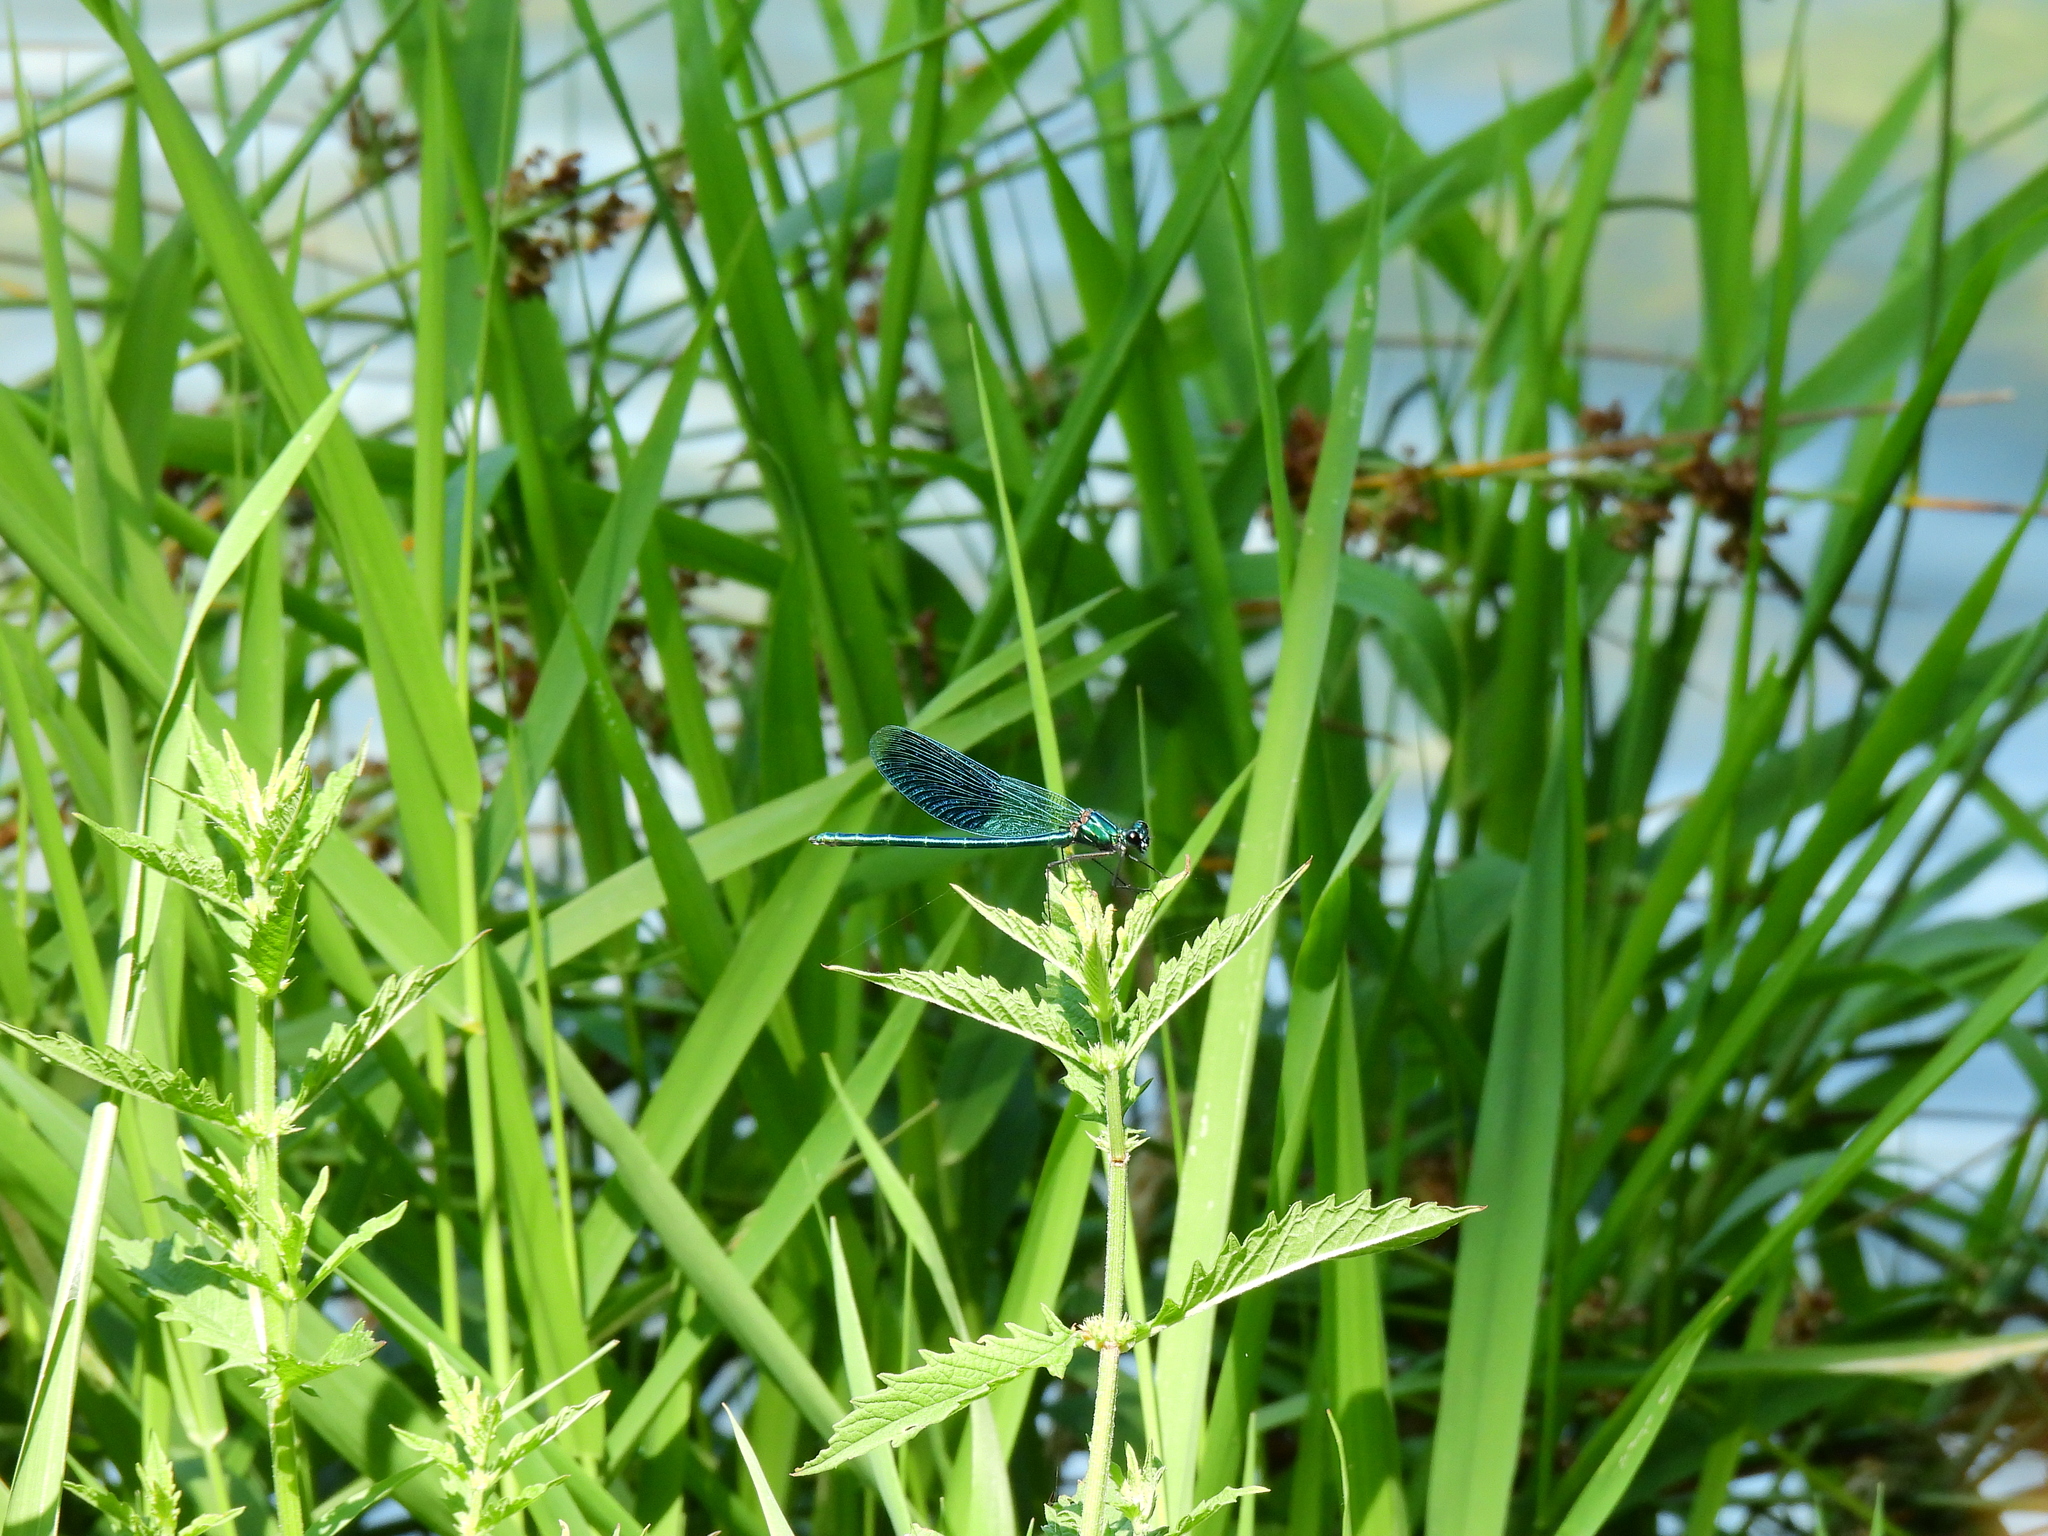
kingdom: Animalia
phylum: Arthropoda
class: Insecta
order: Odonata
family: Calopterygidae
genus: Calopteryx
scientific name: Calopteryx splendens
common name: Banded demoiselle
